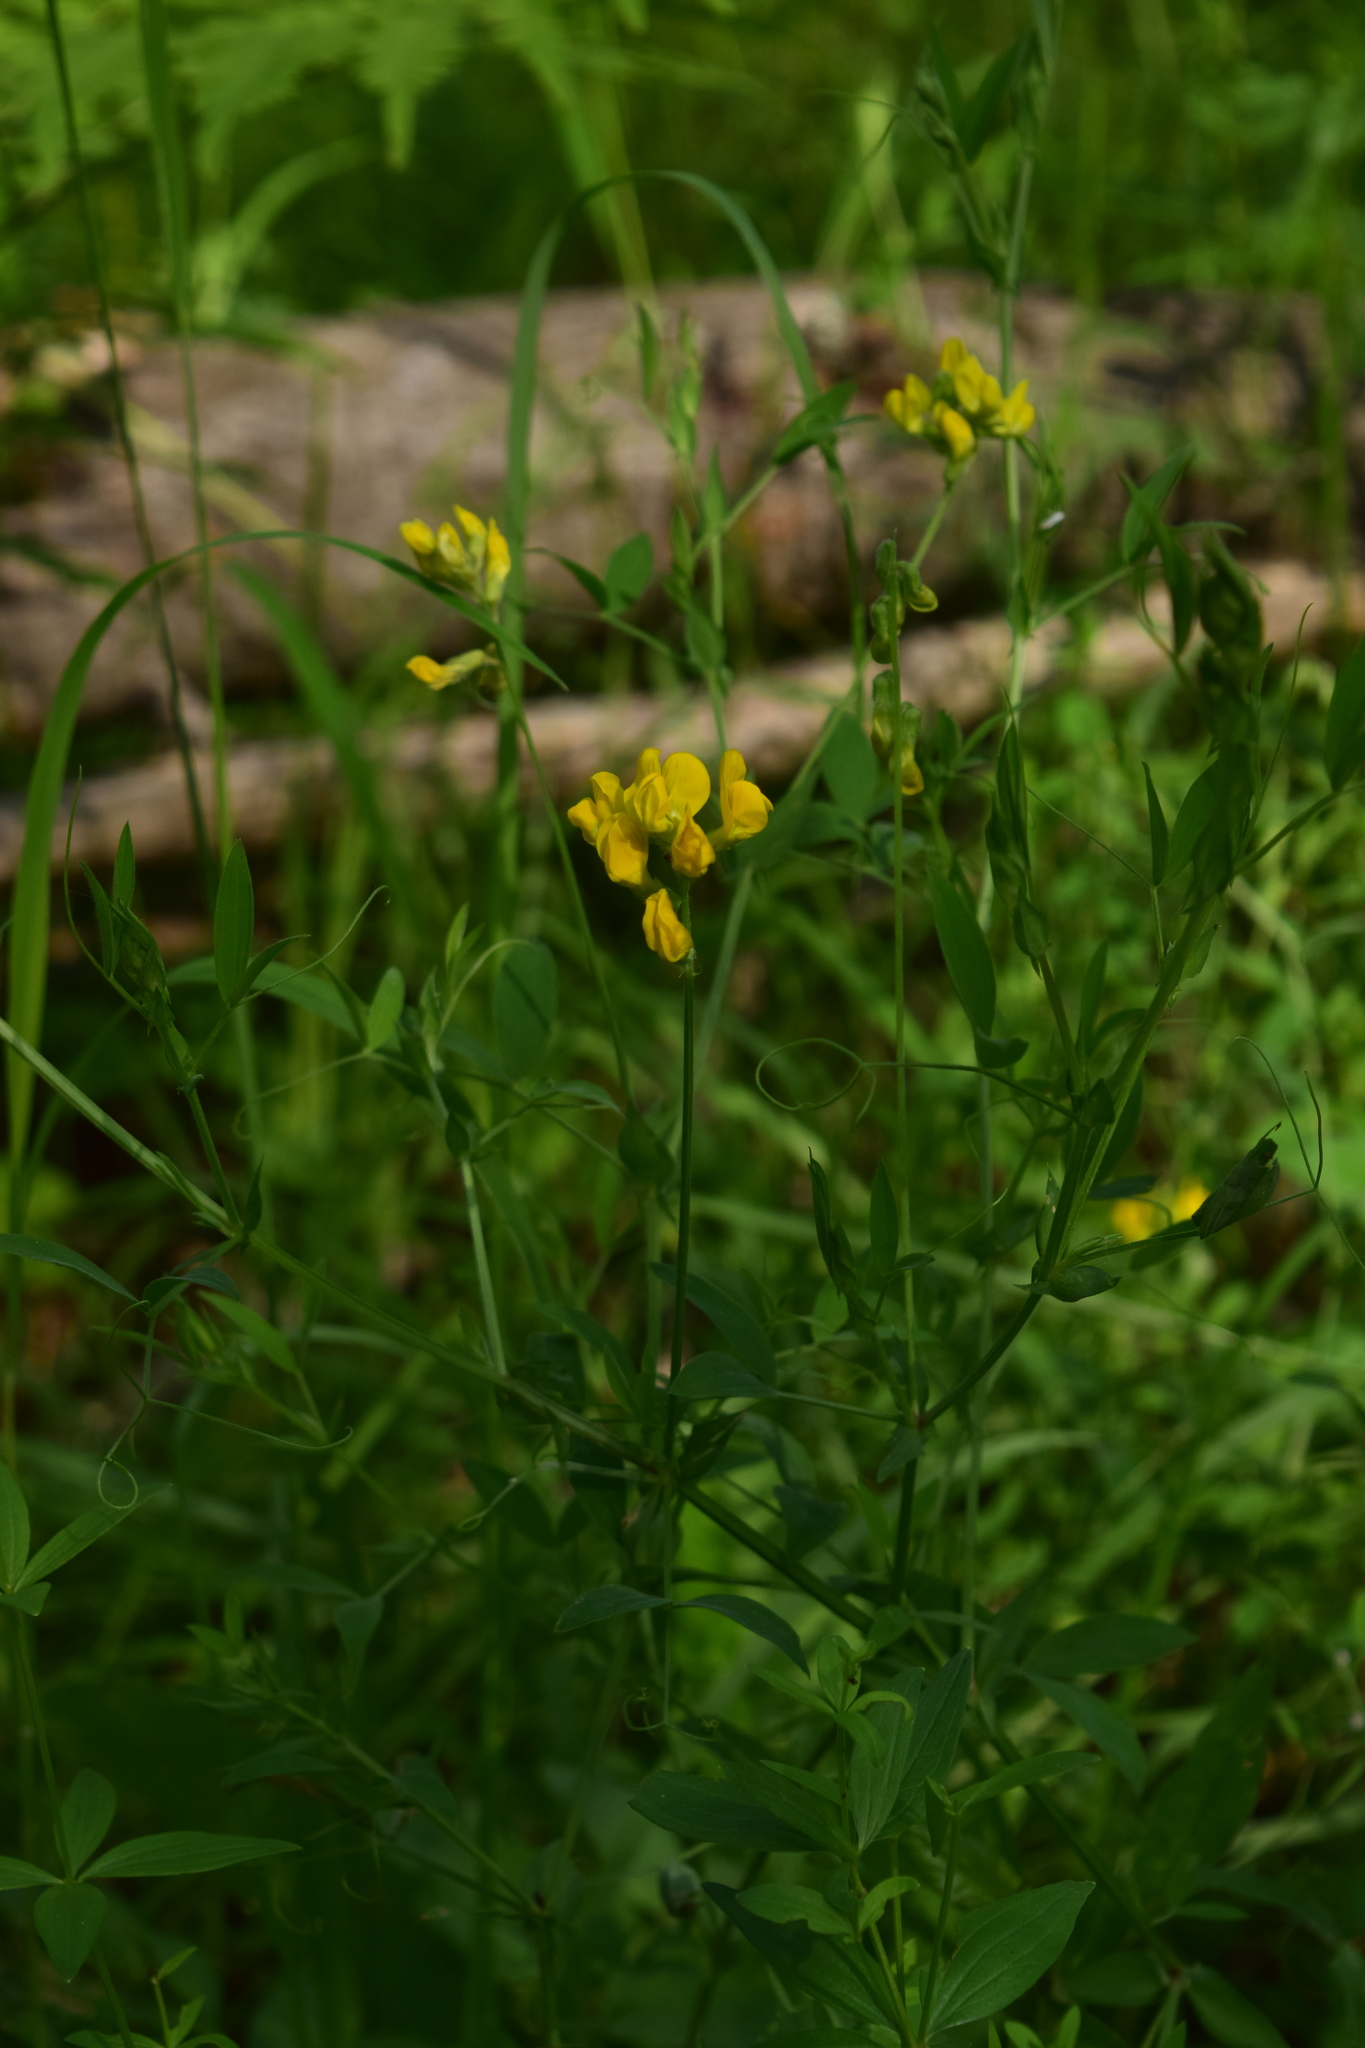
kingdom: Plantae
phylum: Tracheophyta
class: Magnoliopsida
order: Fabales
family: Fabaceae
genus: Lathyrus
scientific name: Lathyrus pratensis
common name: Meadow vetchling
